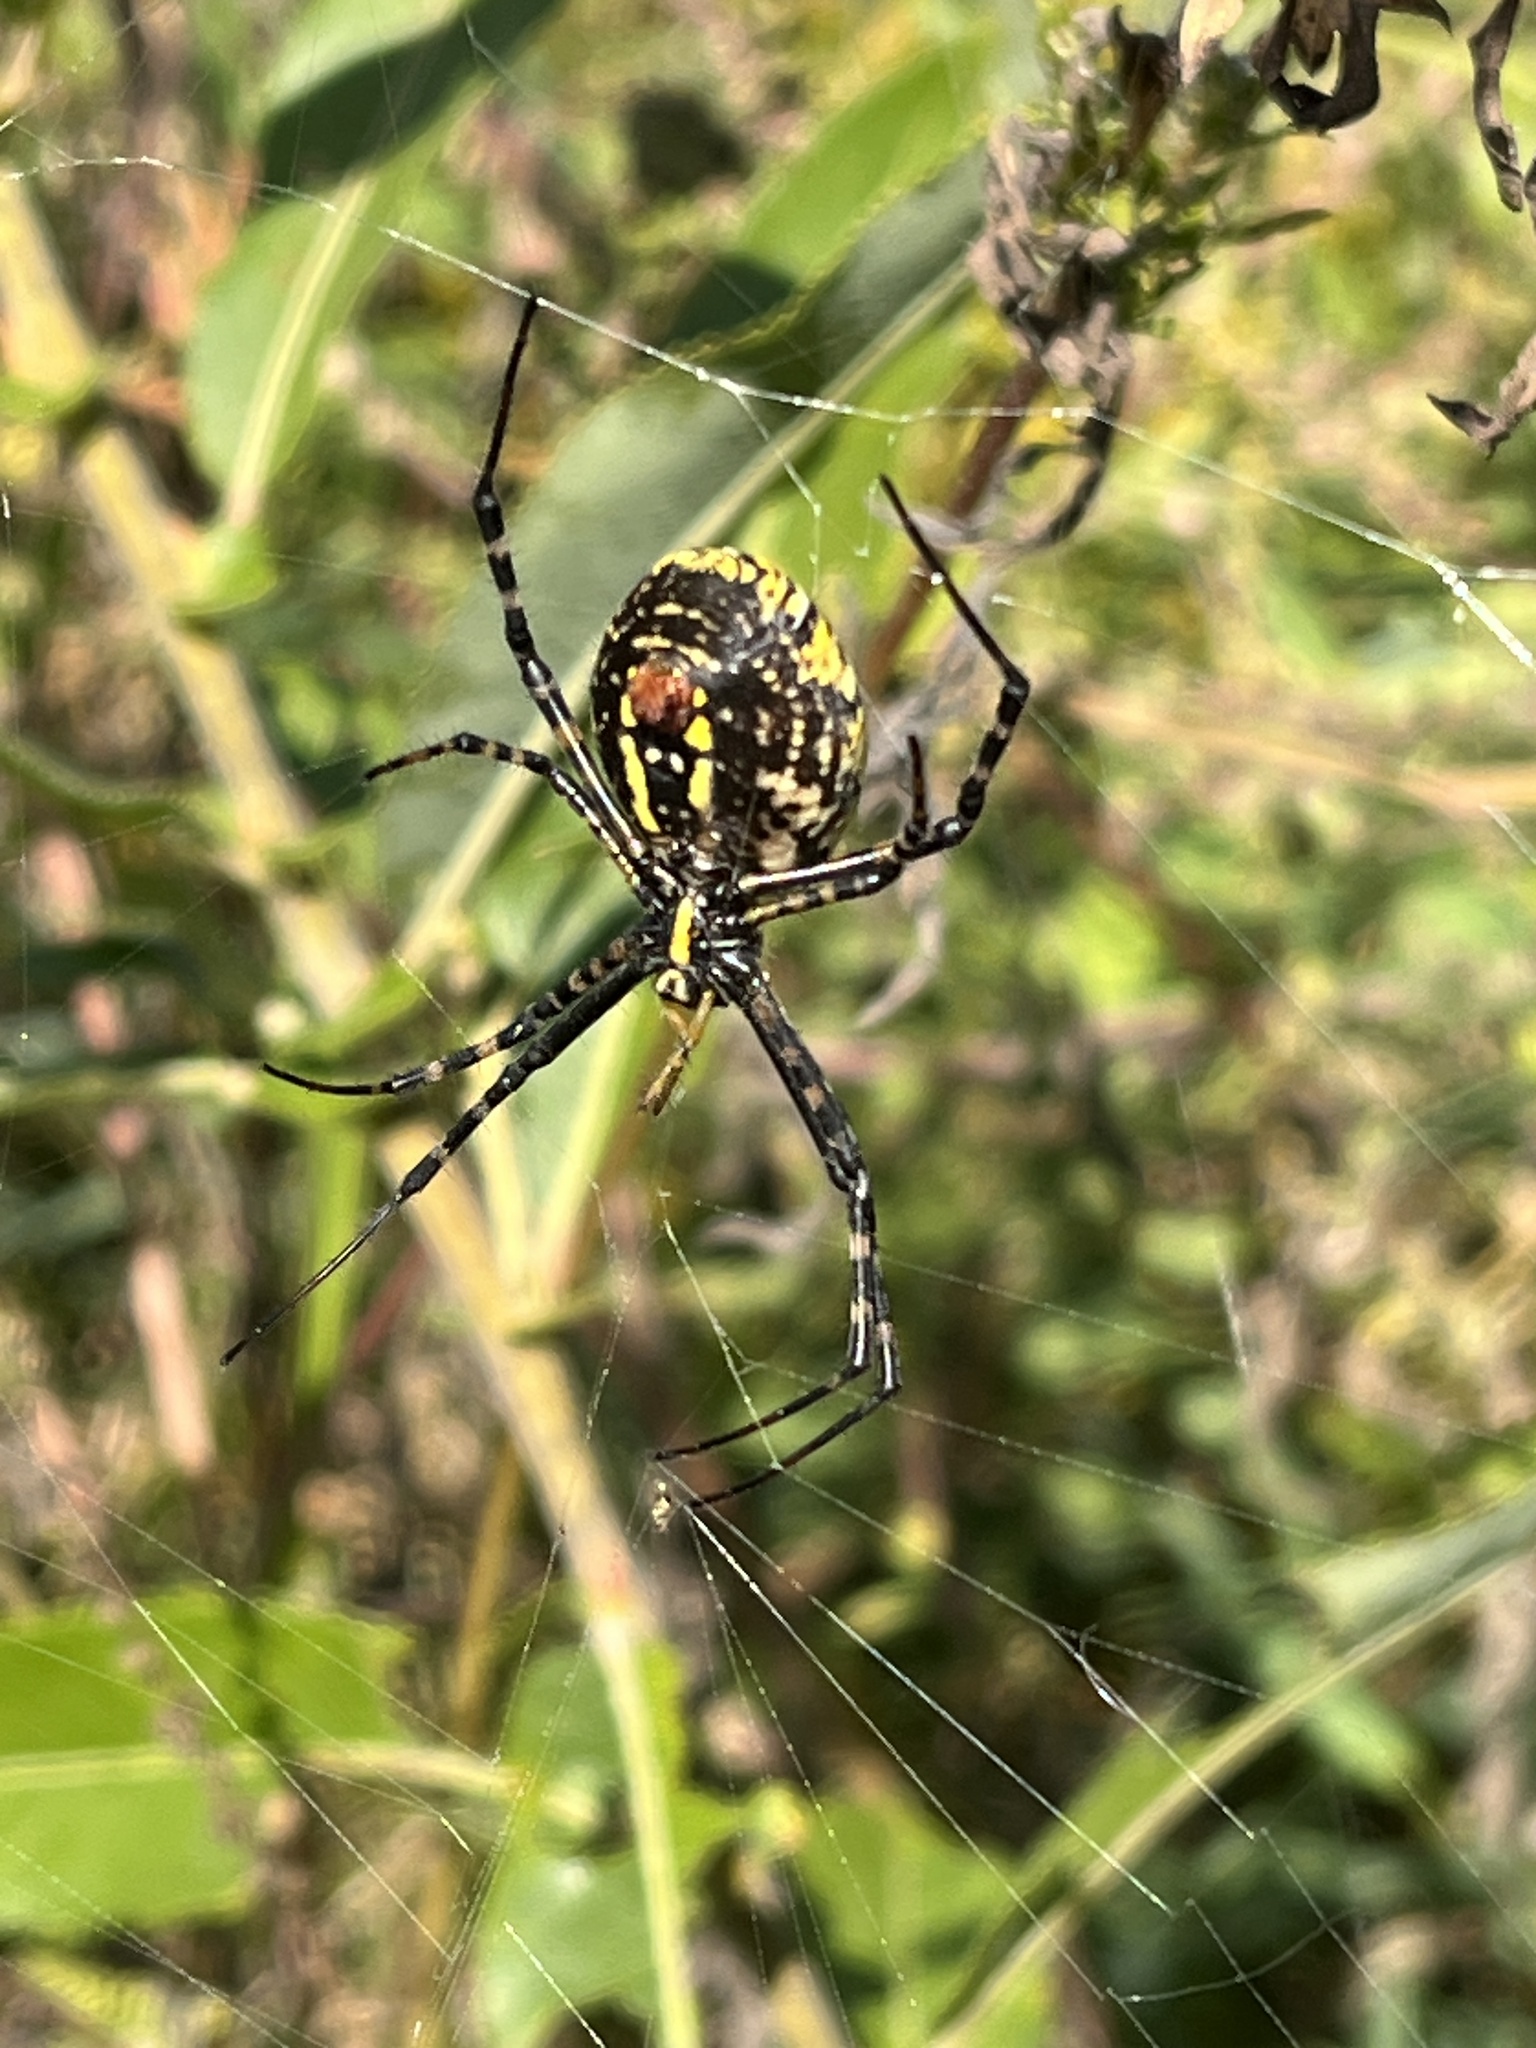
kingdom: Animalia
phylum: Arthropoda
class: Arachnida
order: Araneae
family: Araneidae
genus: Argiope
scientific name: Argiope trifasciata
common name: Banded garden spider
